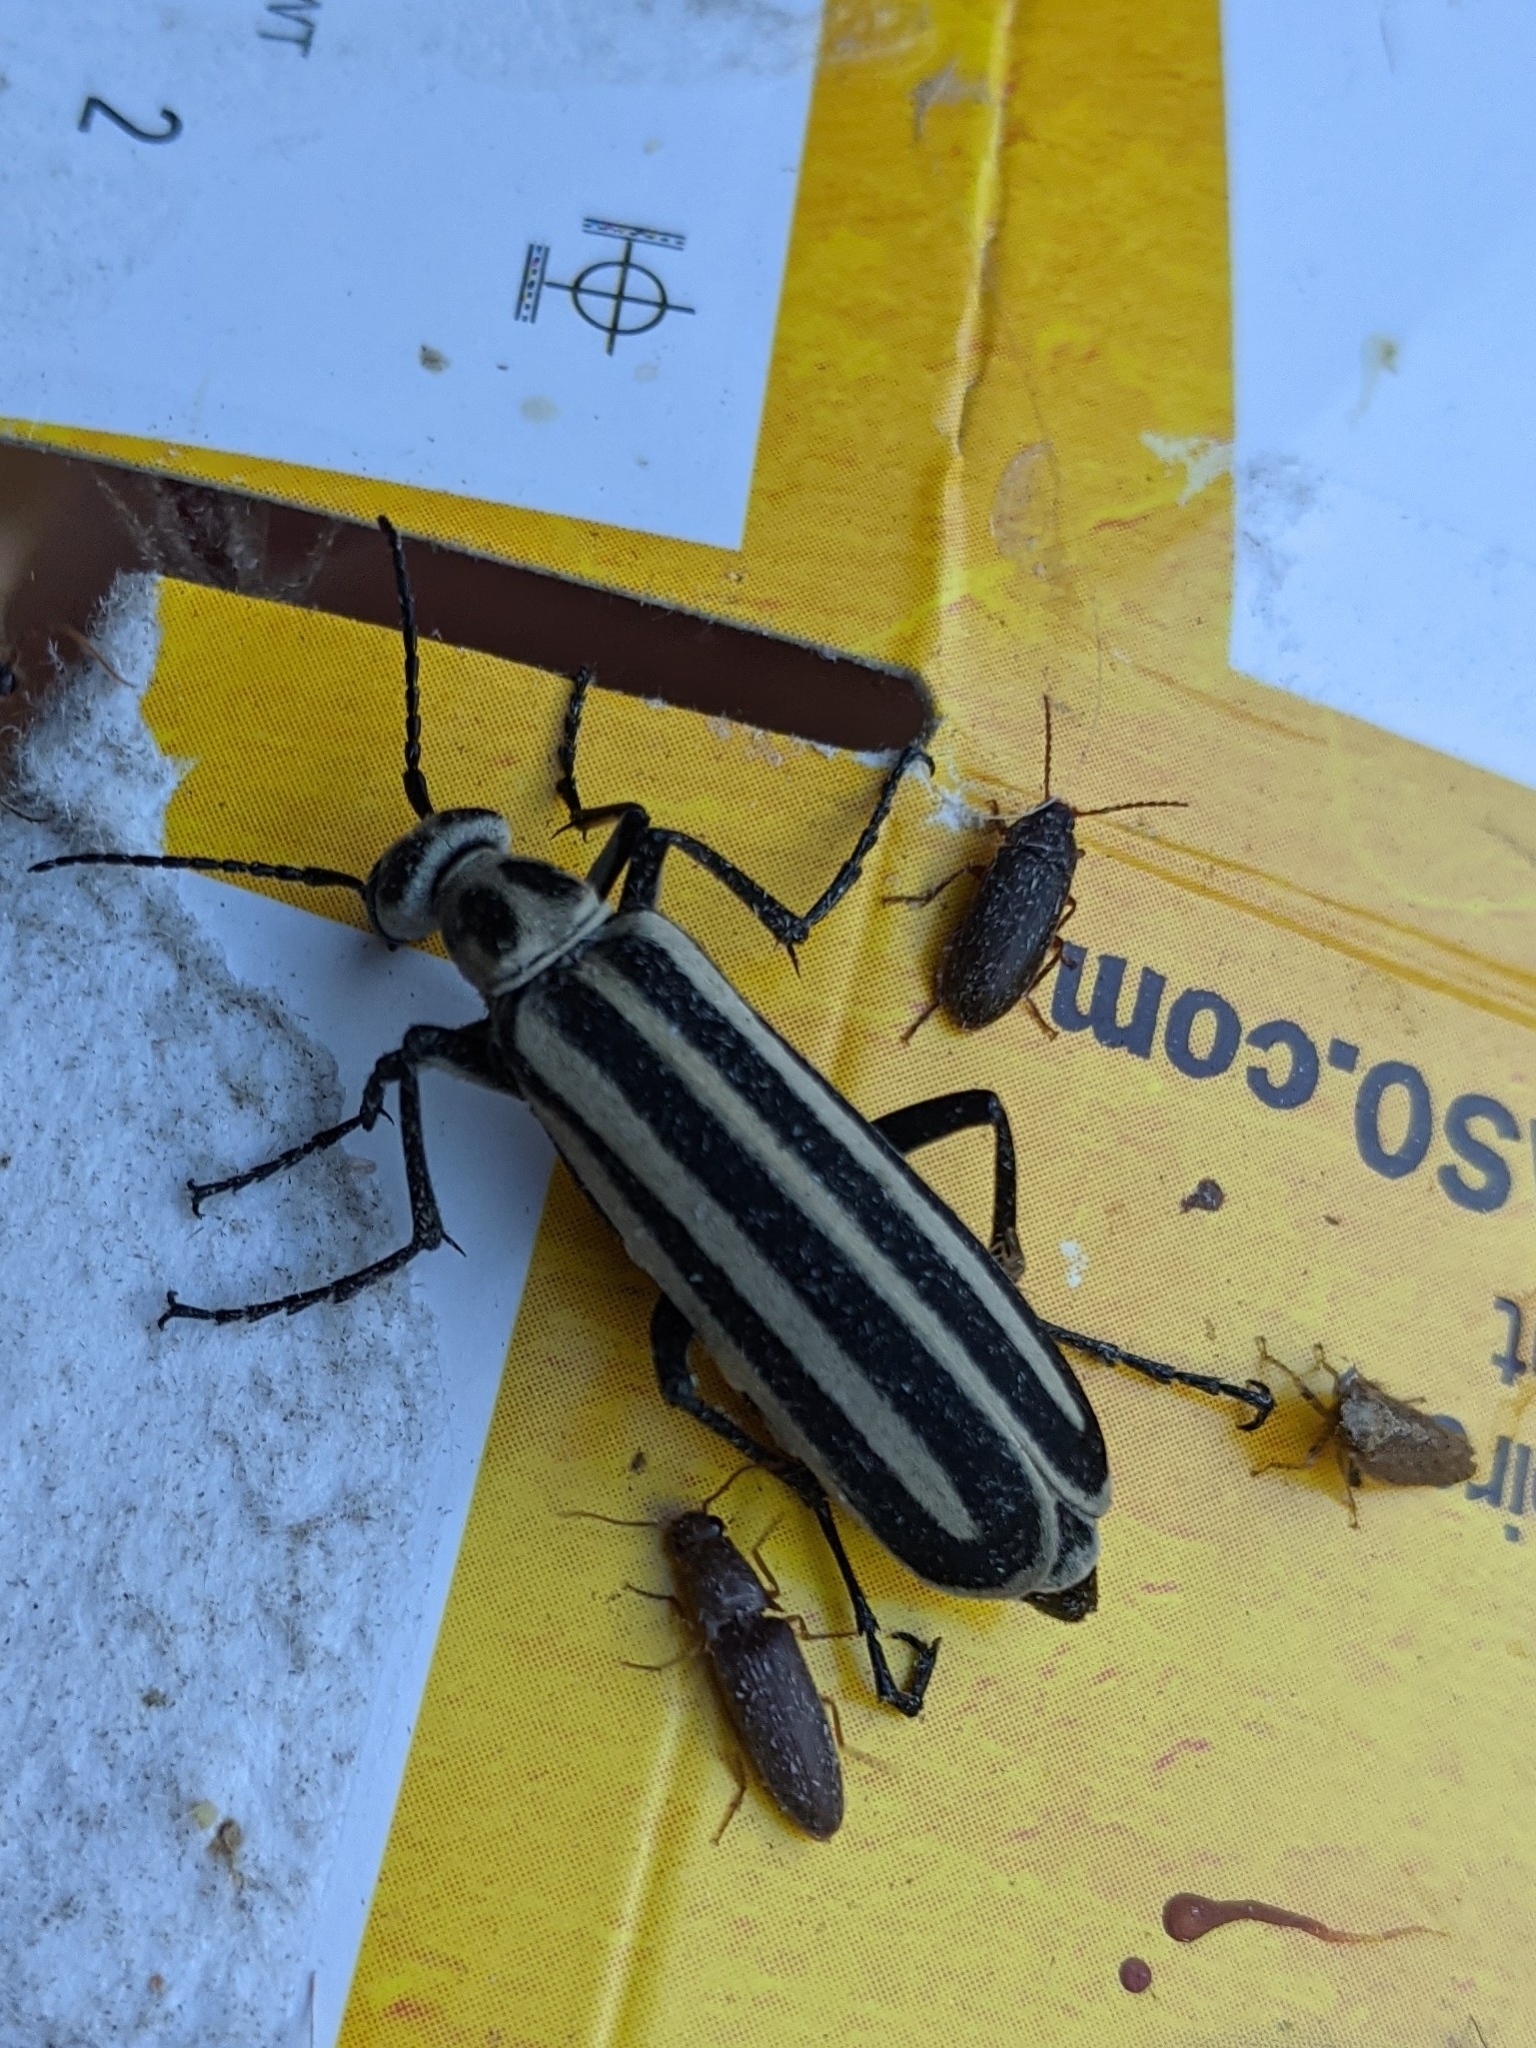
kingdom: Animalia
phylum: Arthropoda
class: Insecta
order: Coleoptera
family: Meloidae
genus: Epicauta
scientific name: Epicauta atrivittata
